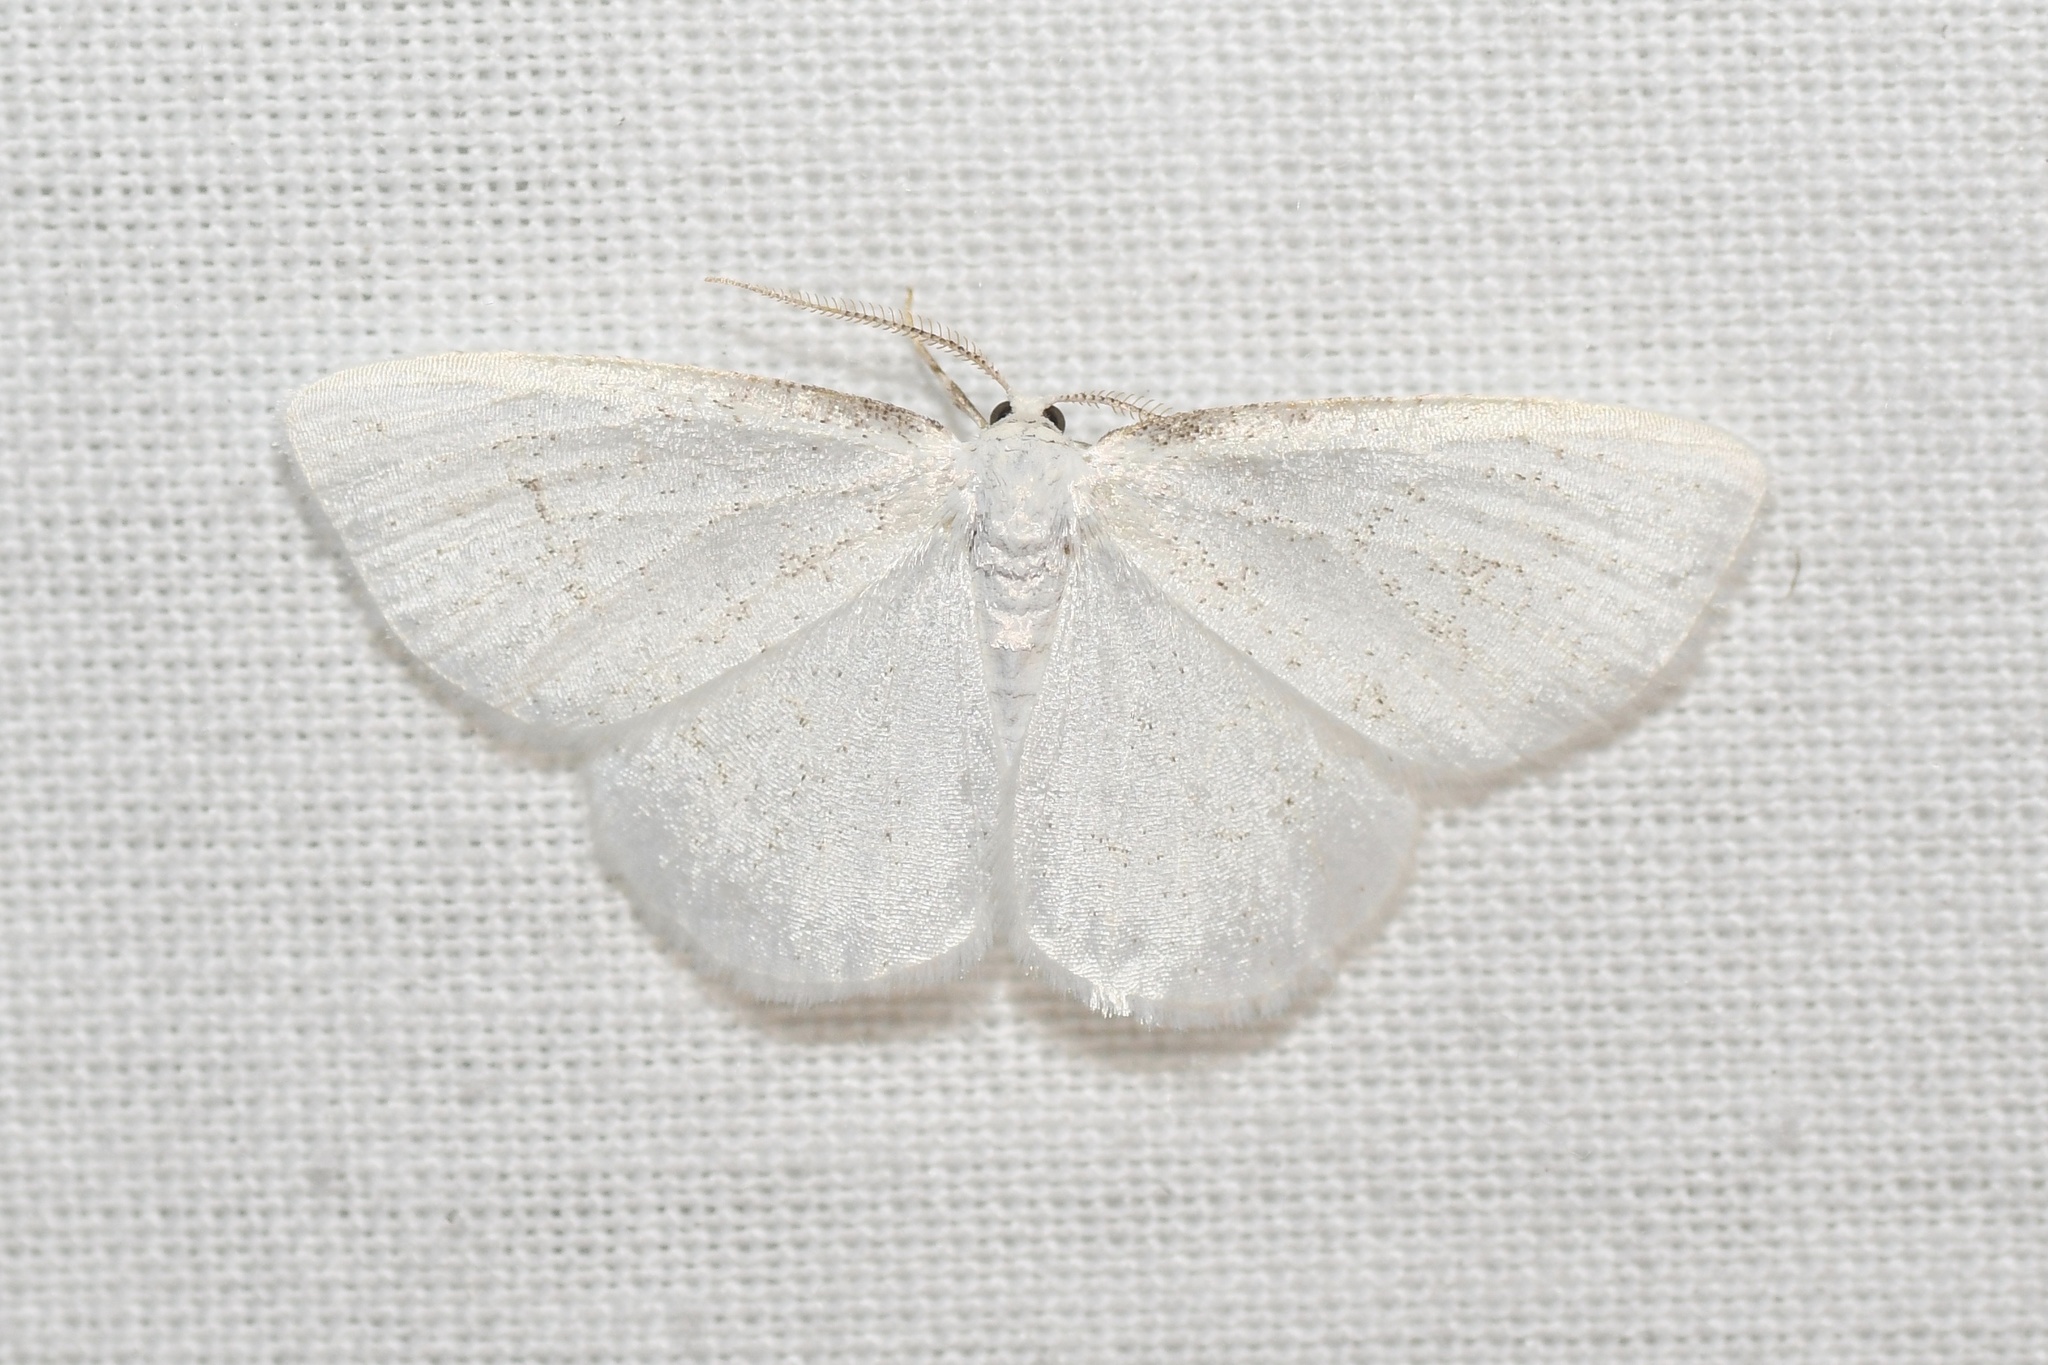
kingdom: Animalia
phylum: Arthropoda
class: Insecta
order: Lepidoptera
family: Geometridae
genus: Protitame
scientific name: Protitame virginalis
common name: Virgin moth
